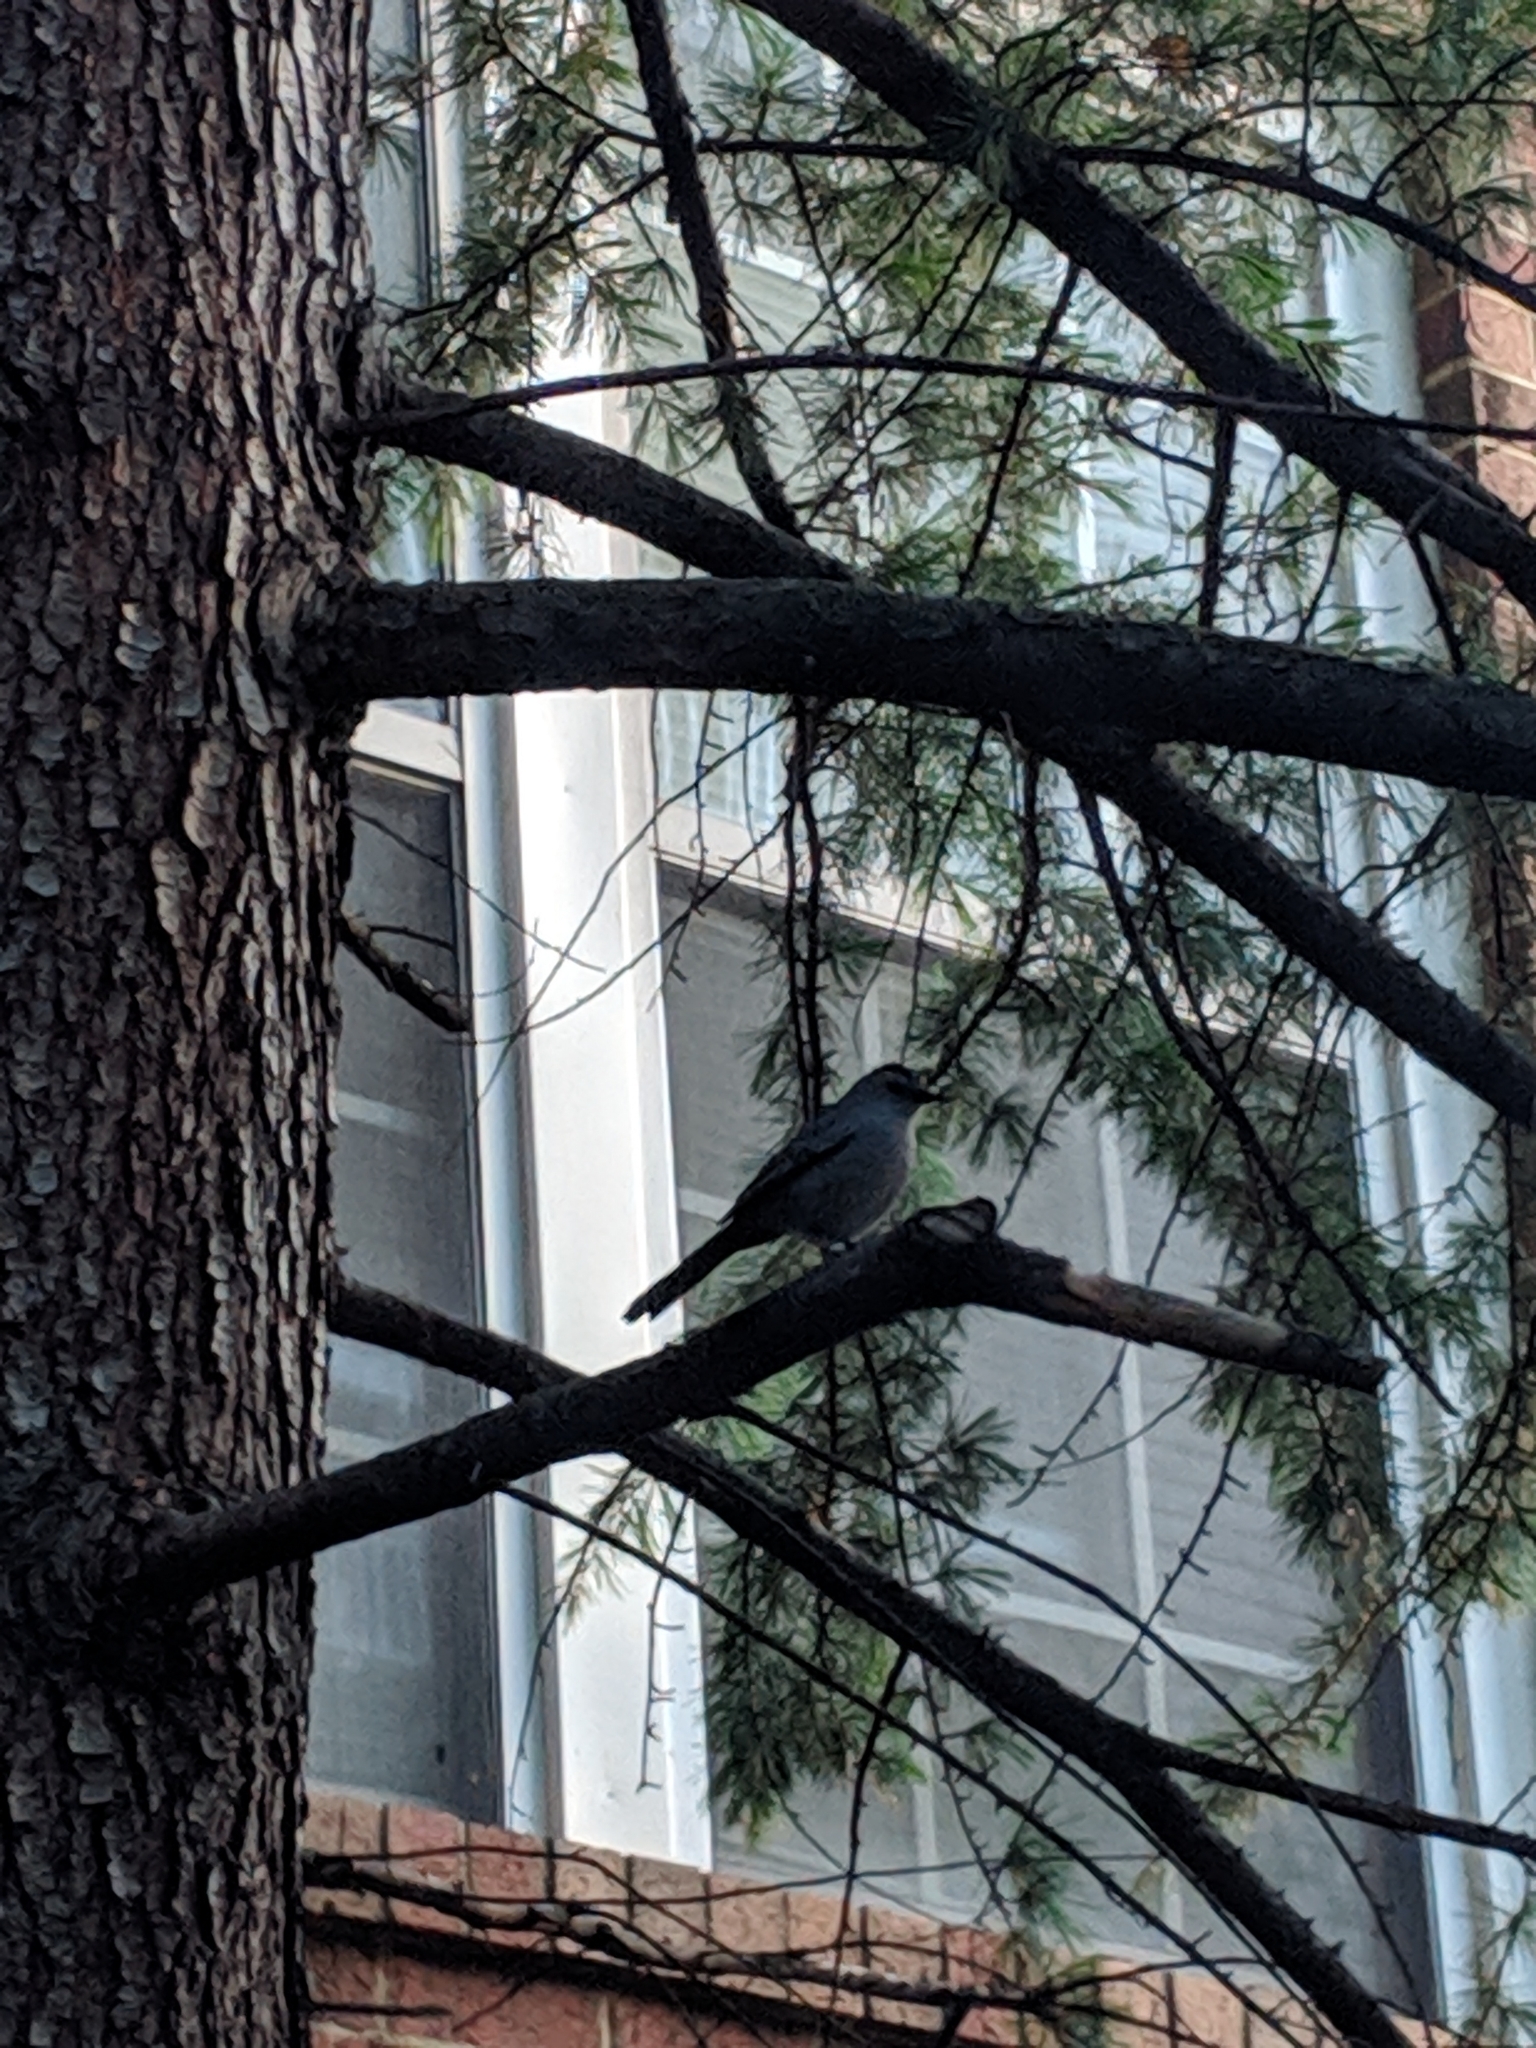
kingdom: Animalia
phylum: Chordata
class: Aves
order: Passeriformes
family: Mimidae
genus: Dumetella
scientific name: Dumetella carolinensis
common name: Gray catbird
